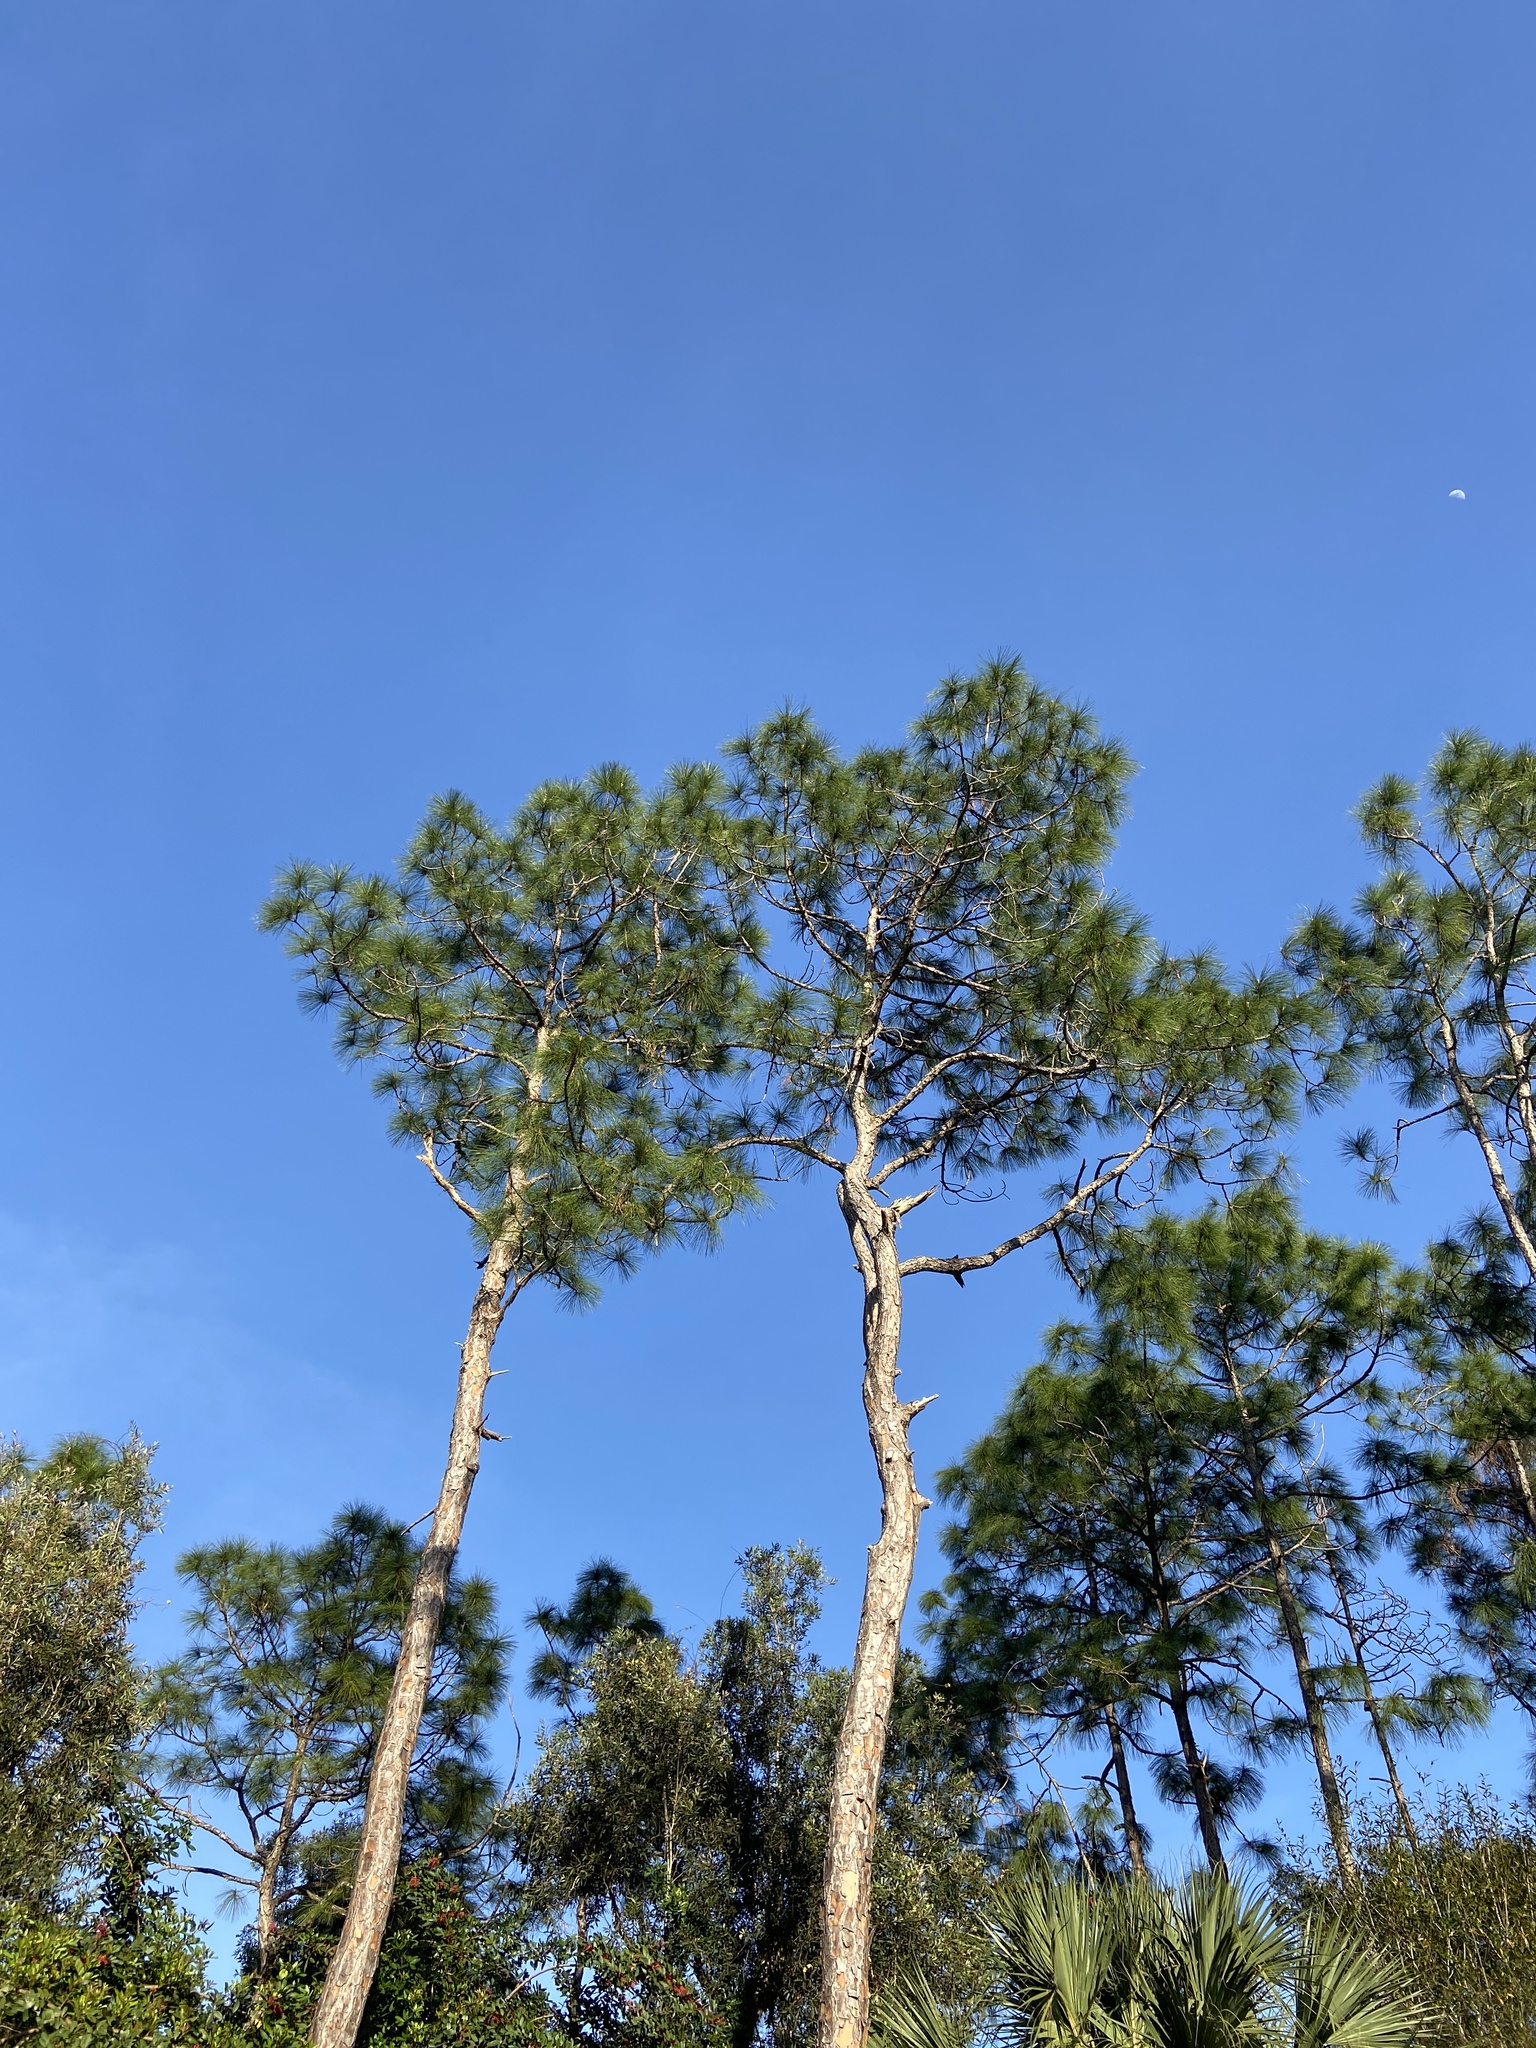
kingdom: Plantae
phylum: Tracheophyta
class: Pinopsida
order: Pinales
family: Pinaceae
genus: Pinus
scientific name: Pinus elliottii
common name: Slash pine
